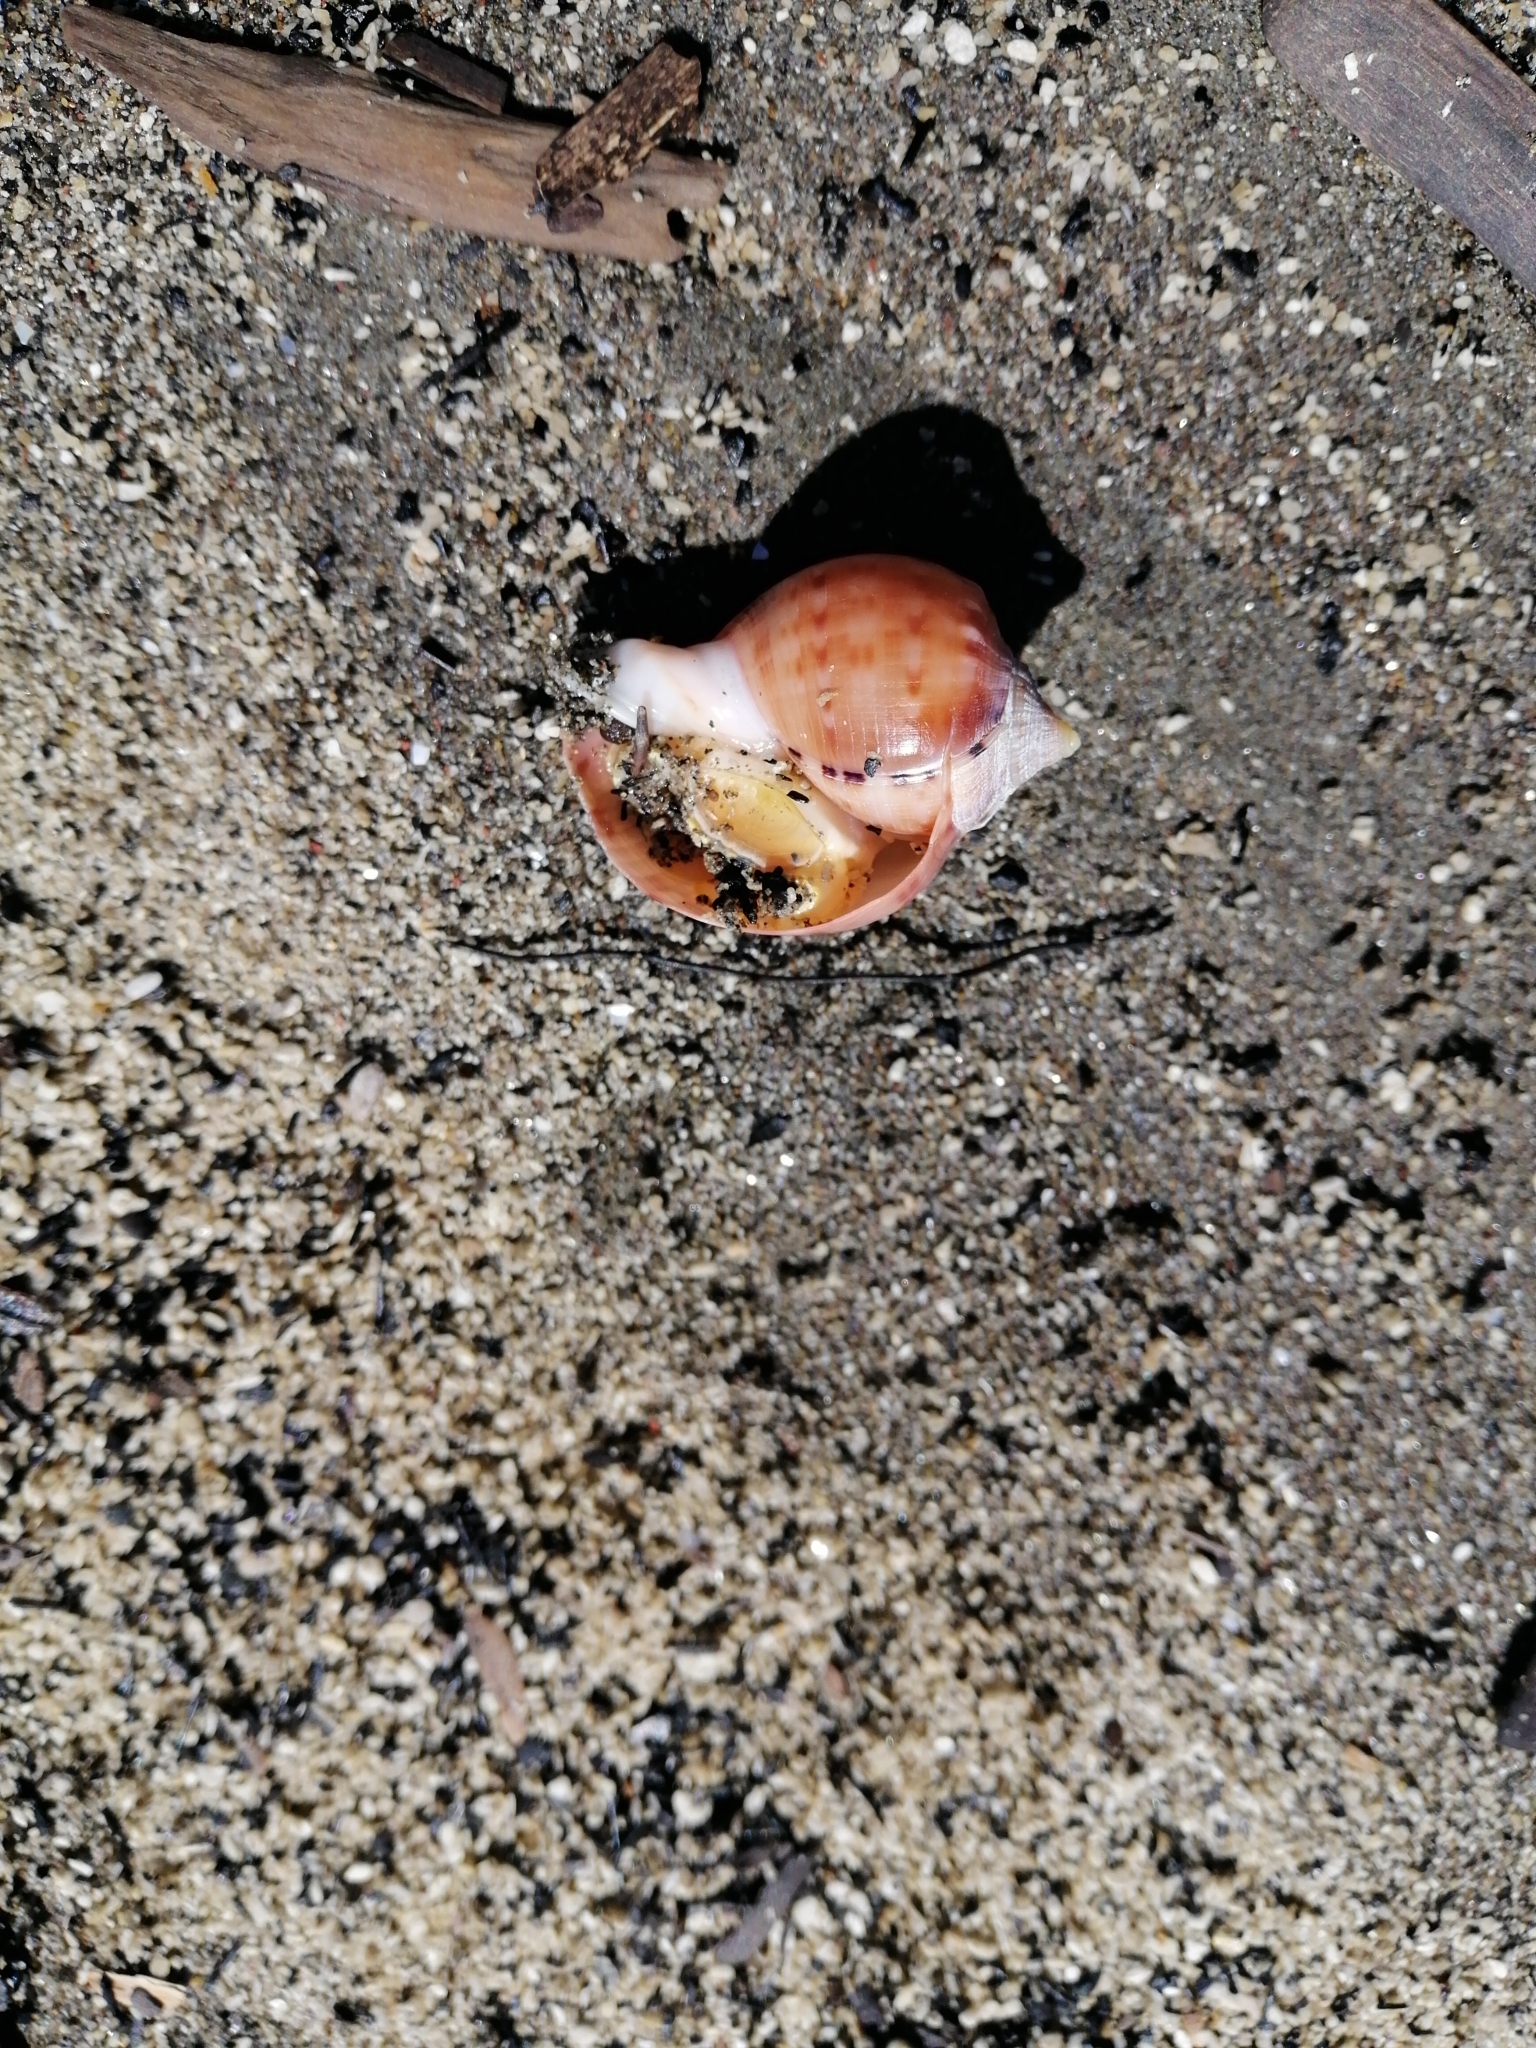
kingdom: Animalia
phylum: Mollusca
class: Gastropoda
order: Littorinimorpha
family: Cassidae
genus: Semicassis
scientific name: Semicassis pyrum
